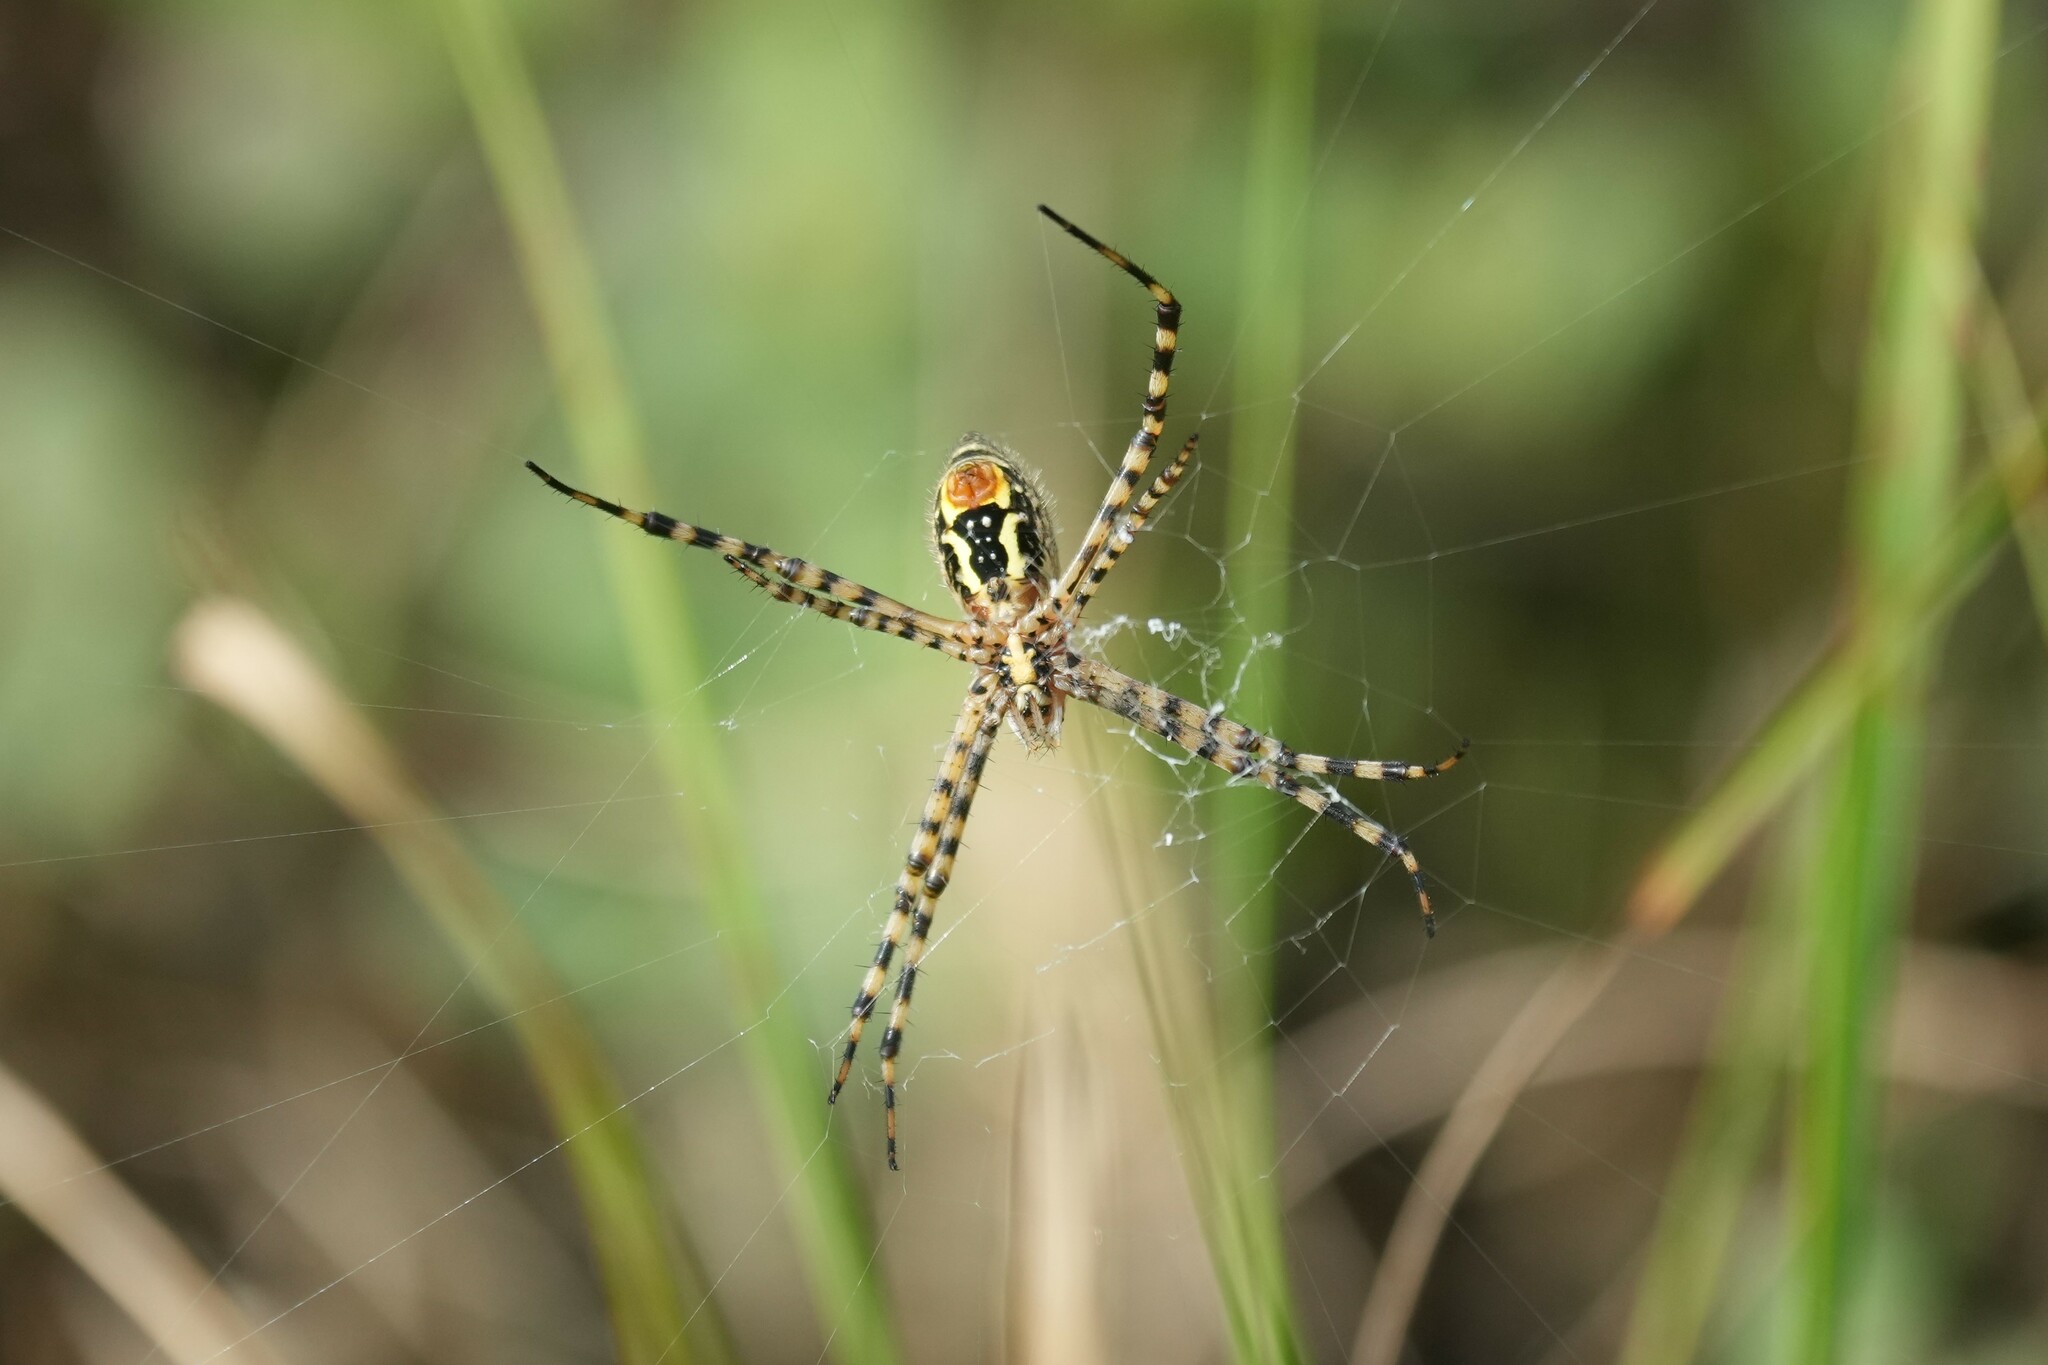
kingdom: Animalia
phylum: Arthropoda
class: Arachnida
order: Araneae
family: Araneidae
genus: Argiope
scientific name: Argiope trifasciata
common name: Banded garden spider
